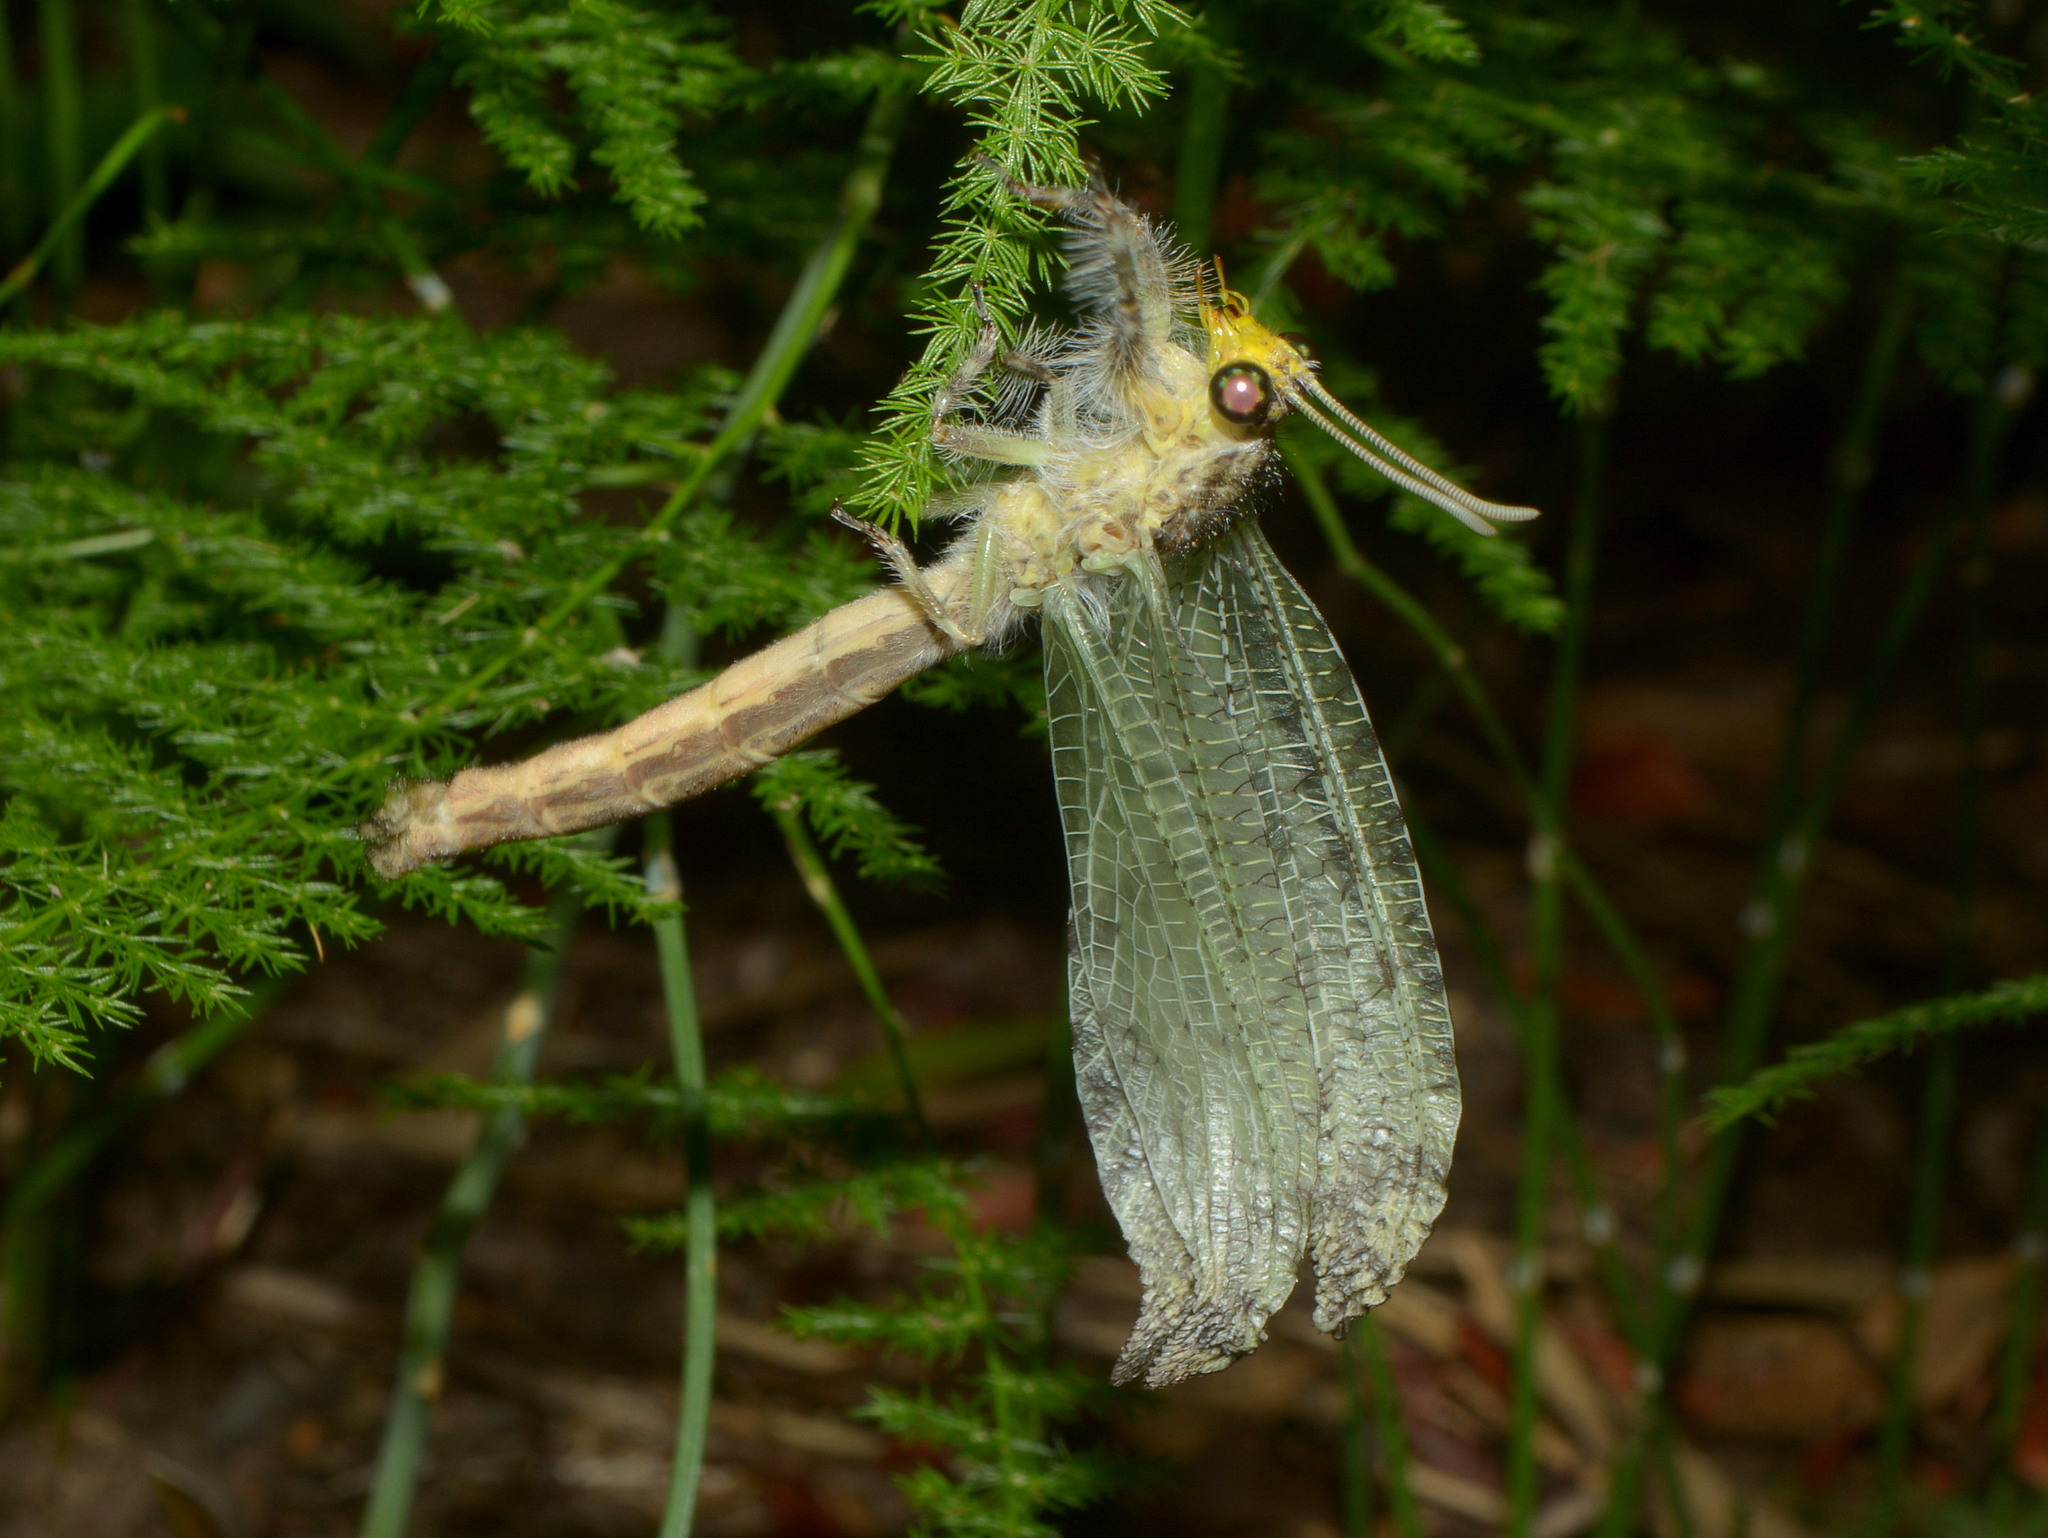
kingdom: Animalia
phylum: Arthropoda
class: Insecta
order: Neuroptera
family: Myrmeleontidae
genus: Vella
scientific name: Vella fallax
